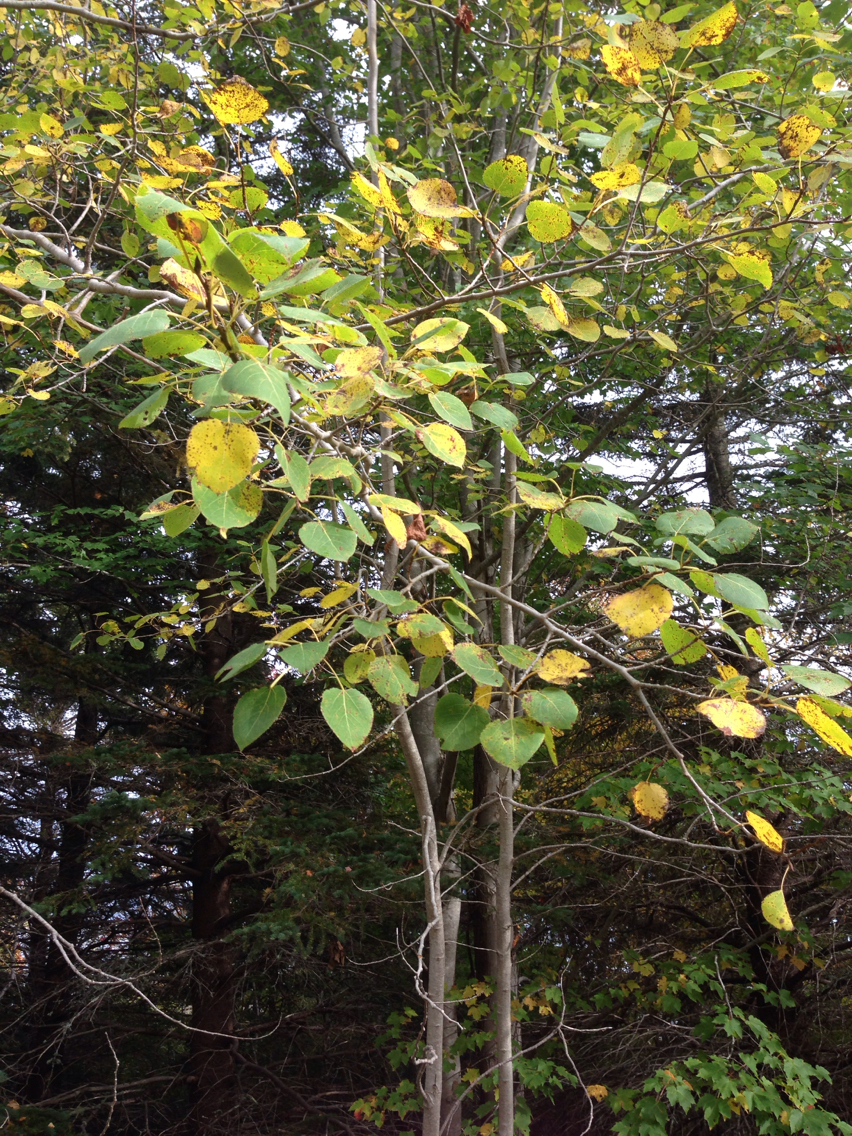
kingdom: Plantae
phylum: Tracheophyta
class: Magnoliopsida
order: Malpighiales
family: Salicaceae
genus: Populus
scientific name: Populus tremuloides
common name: Quaking aspen
